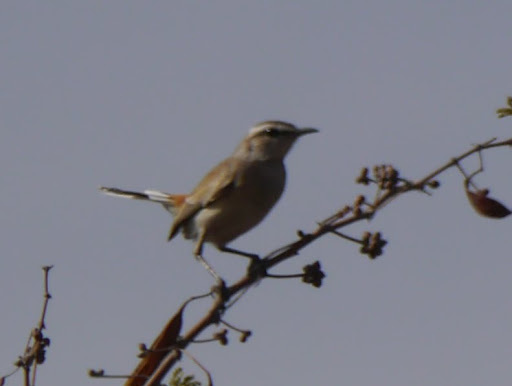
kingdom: Animalia
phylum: Chordata
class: Aves
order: Passeriformes
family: Muscicapidae
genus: Erythropygia
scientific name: Erythropygia paena
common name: Kalahari scrub robin
